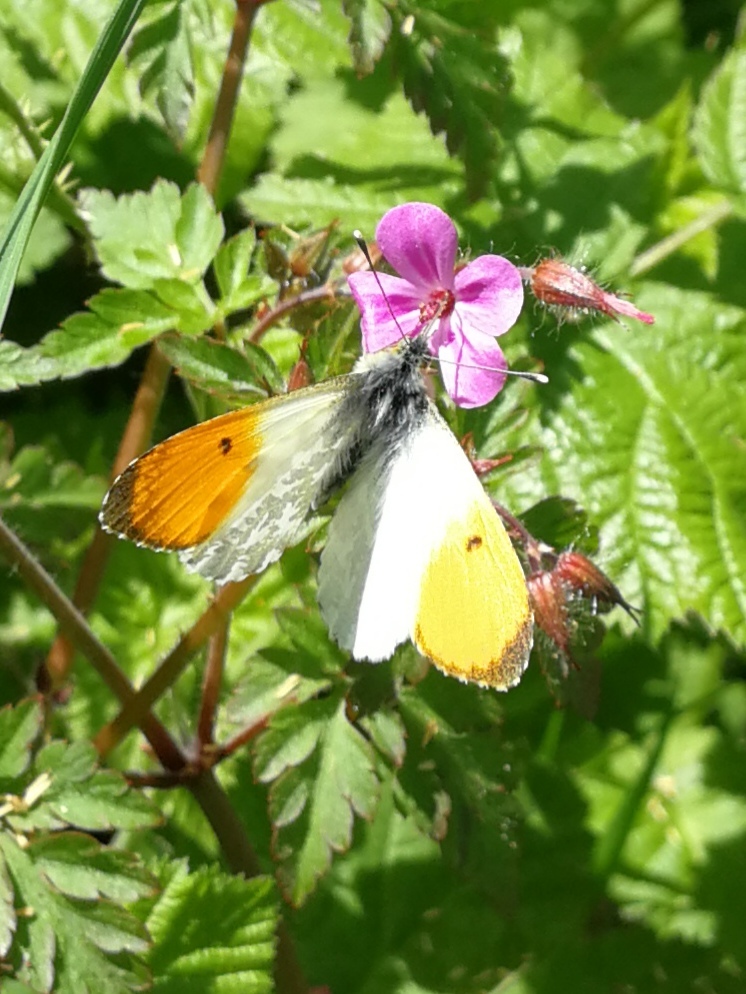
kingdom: Animalia
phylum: Arthropoda
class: Insecta
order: Lepidoptera
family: Pieridae
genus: Anthocharis
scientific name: Anthocharis cardamines
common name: Orange-tip
